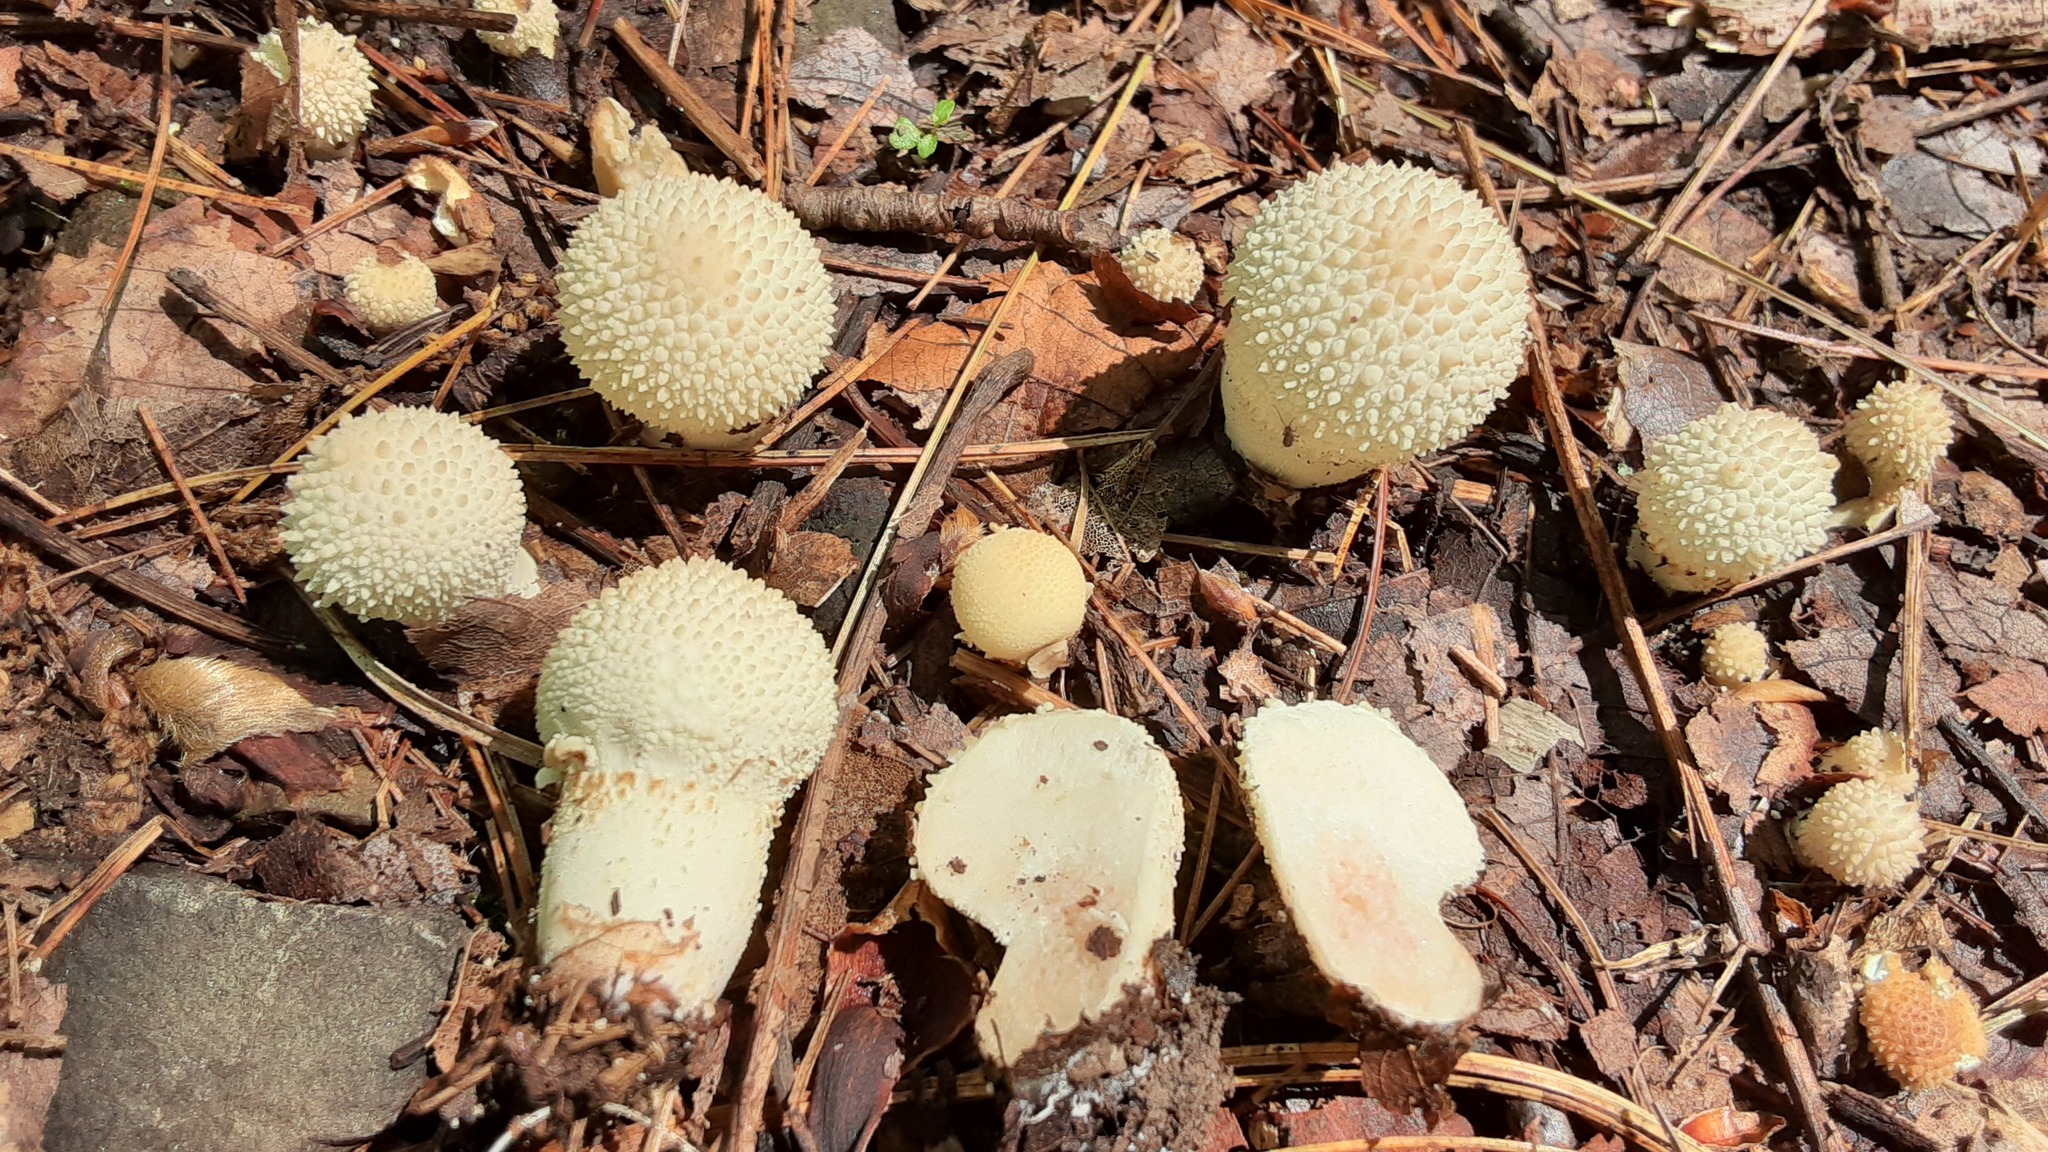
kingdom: Fungi
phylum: Basidiomycota
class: Agaricomycetes
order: Agaricales
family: Lycoperdaceae
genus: Lycoperdon
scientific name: Lycoperdon perlatum
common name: Common puffball
